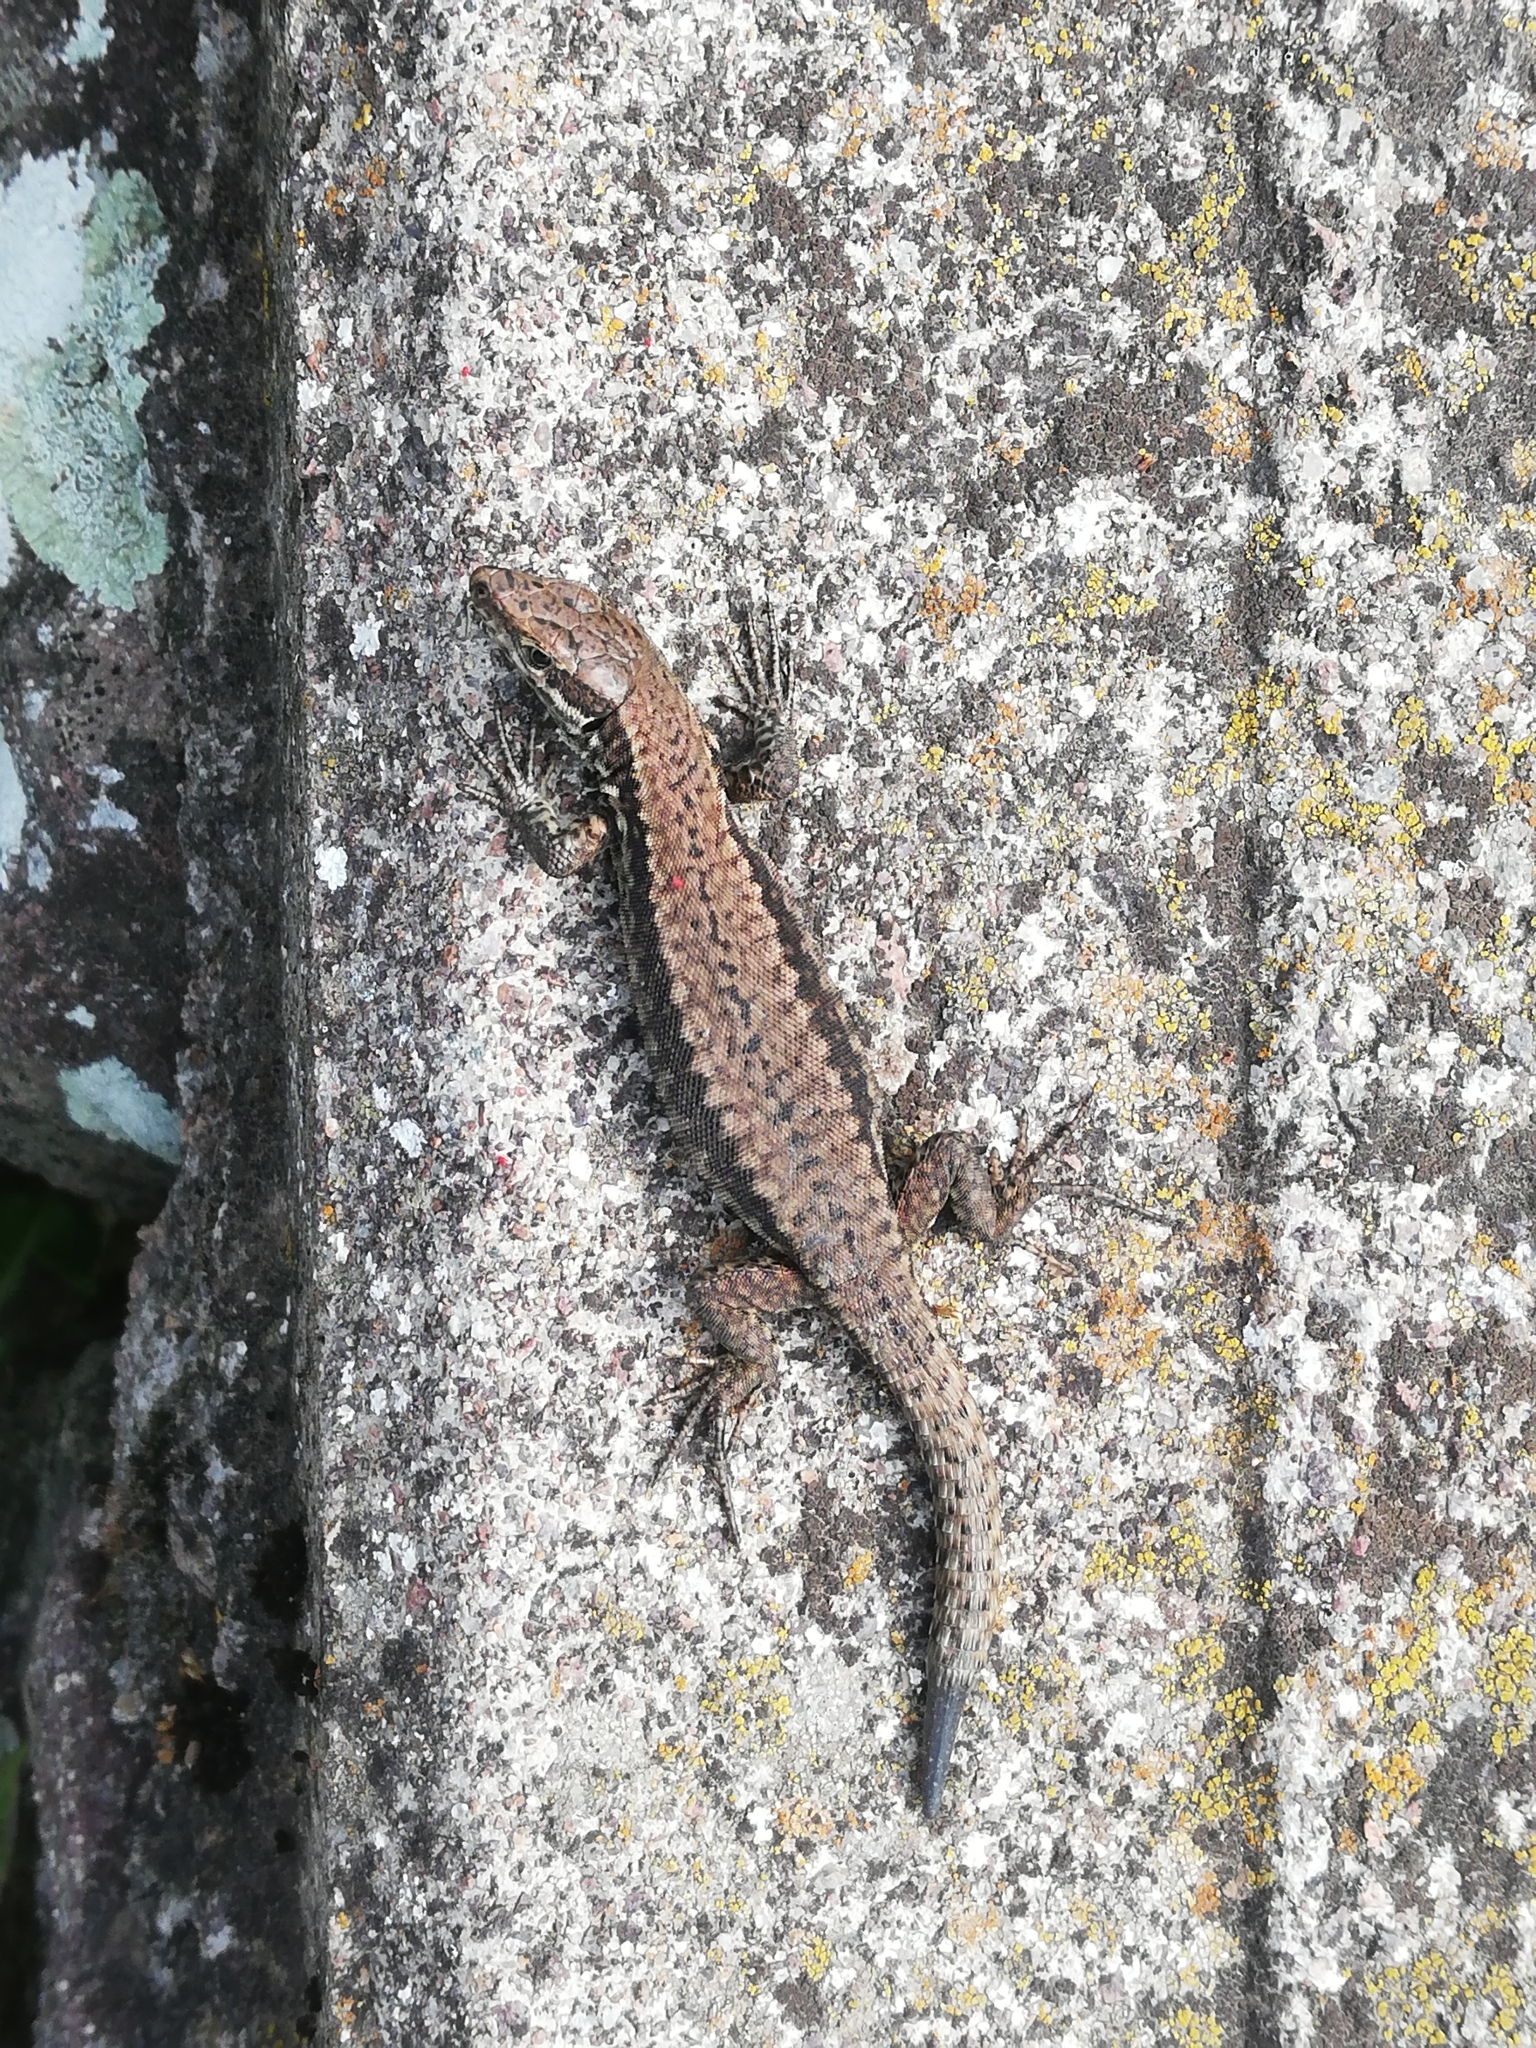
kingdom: Animalia
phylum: Chordata
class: Squamata
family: Lacertidae
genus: Podarcis
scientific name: Podarcis muralis
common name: Common wall lizard
